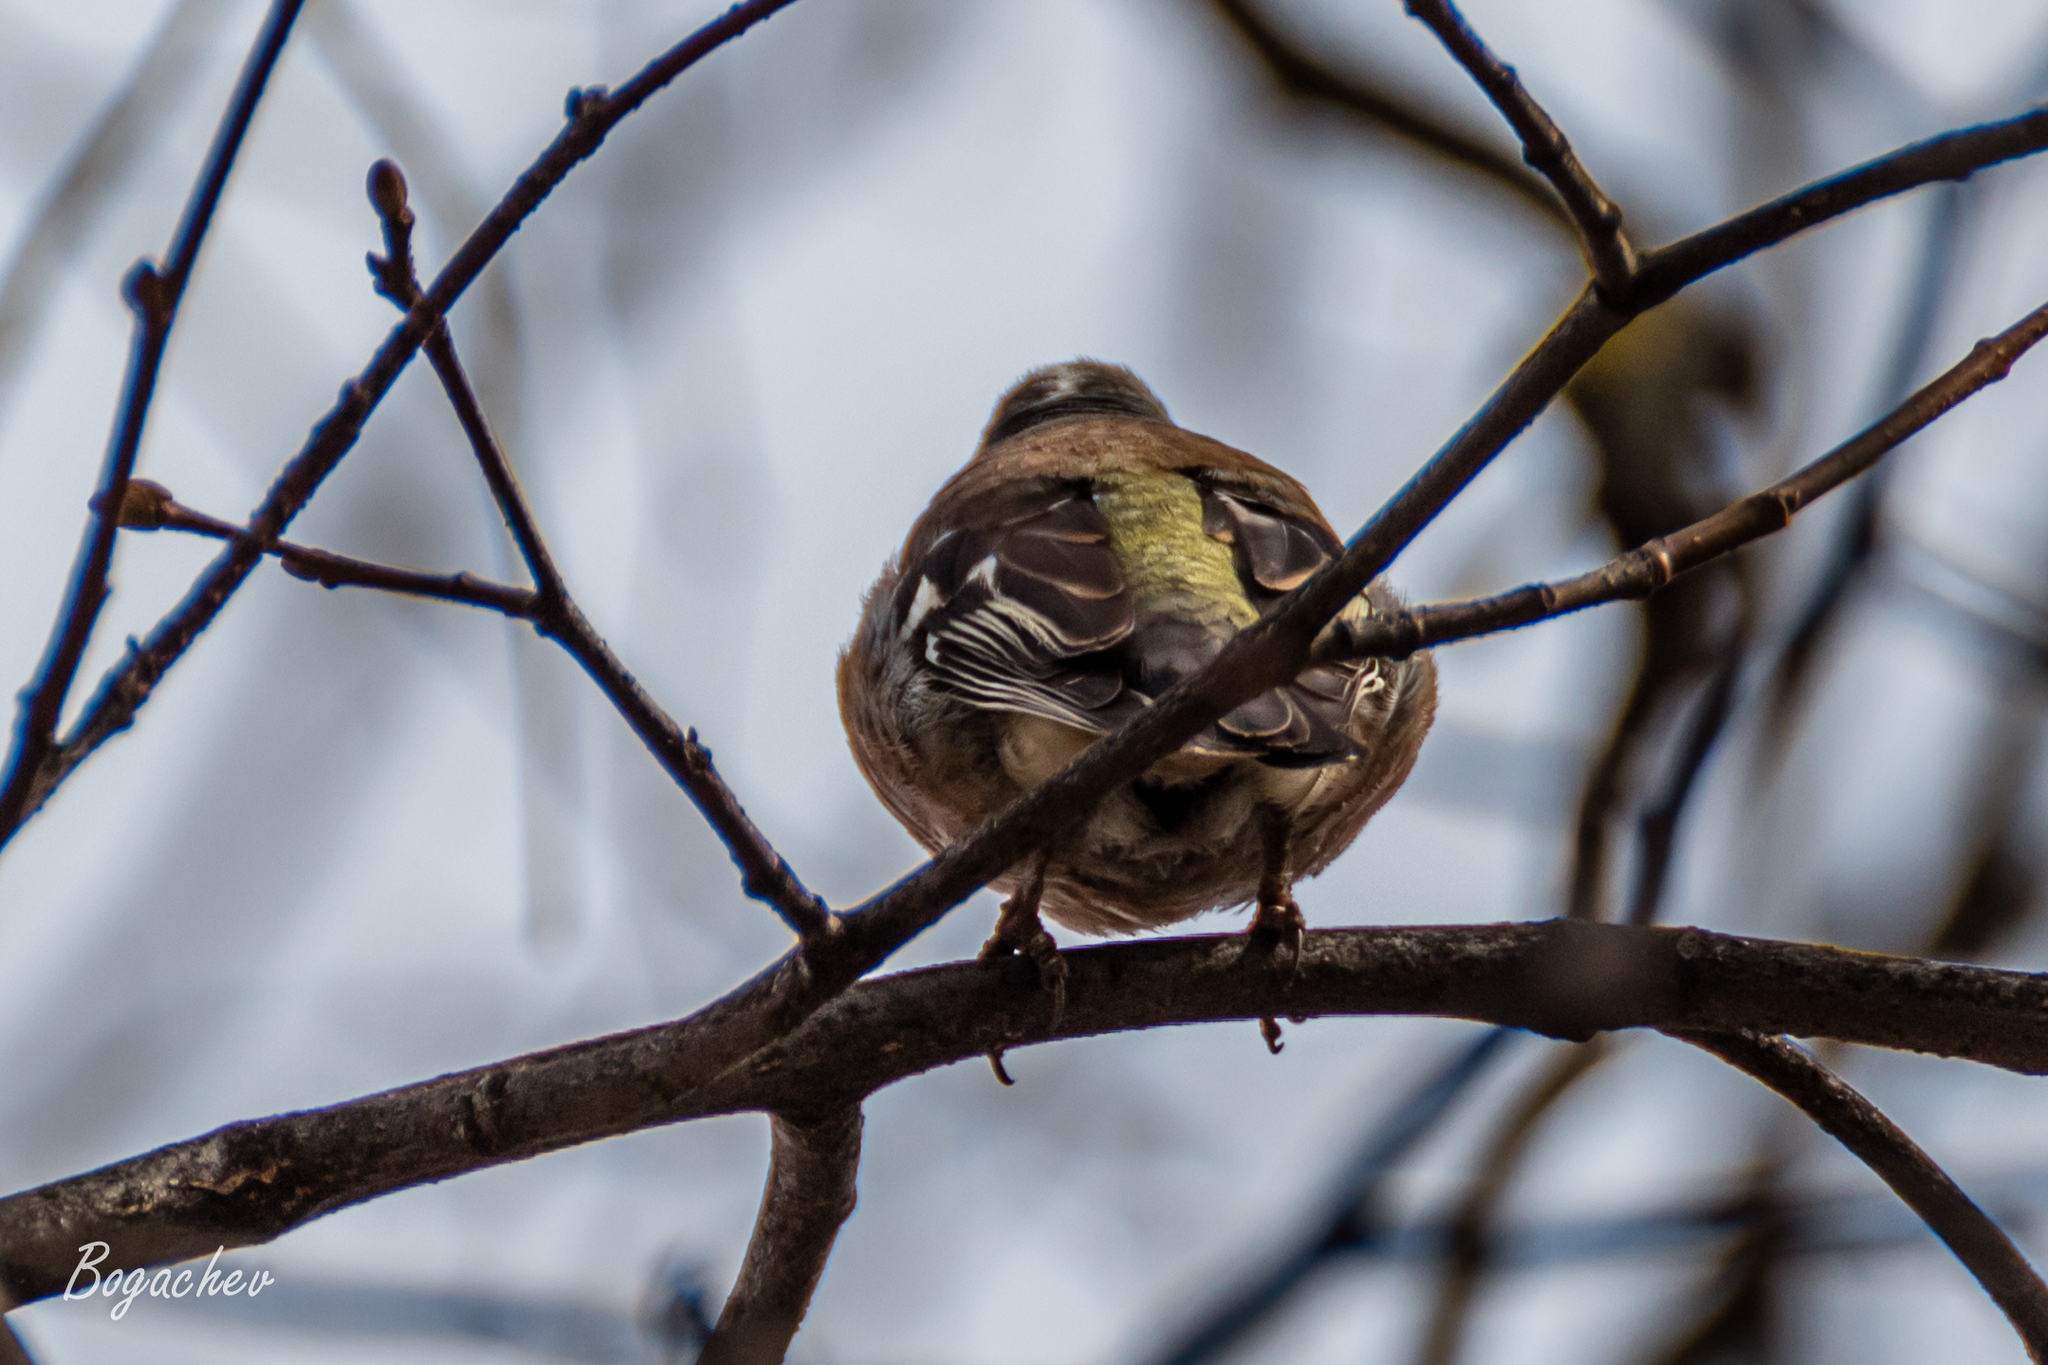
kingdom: Animalia
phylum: Chordata
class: Aves
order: Passeriformes
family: Fringillidae
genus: Fringilla
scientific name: Fringilla coelebs
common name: Common chaffinch
